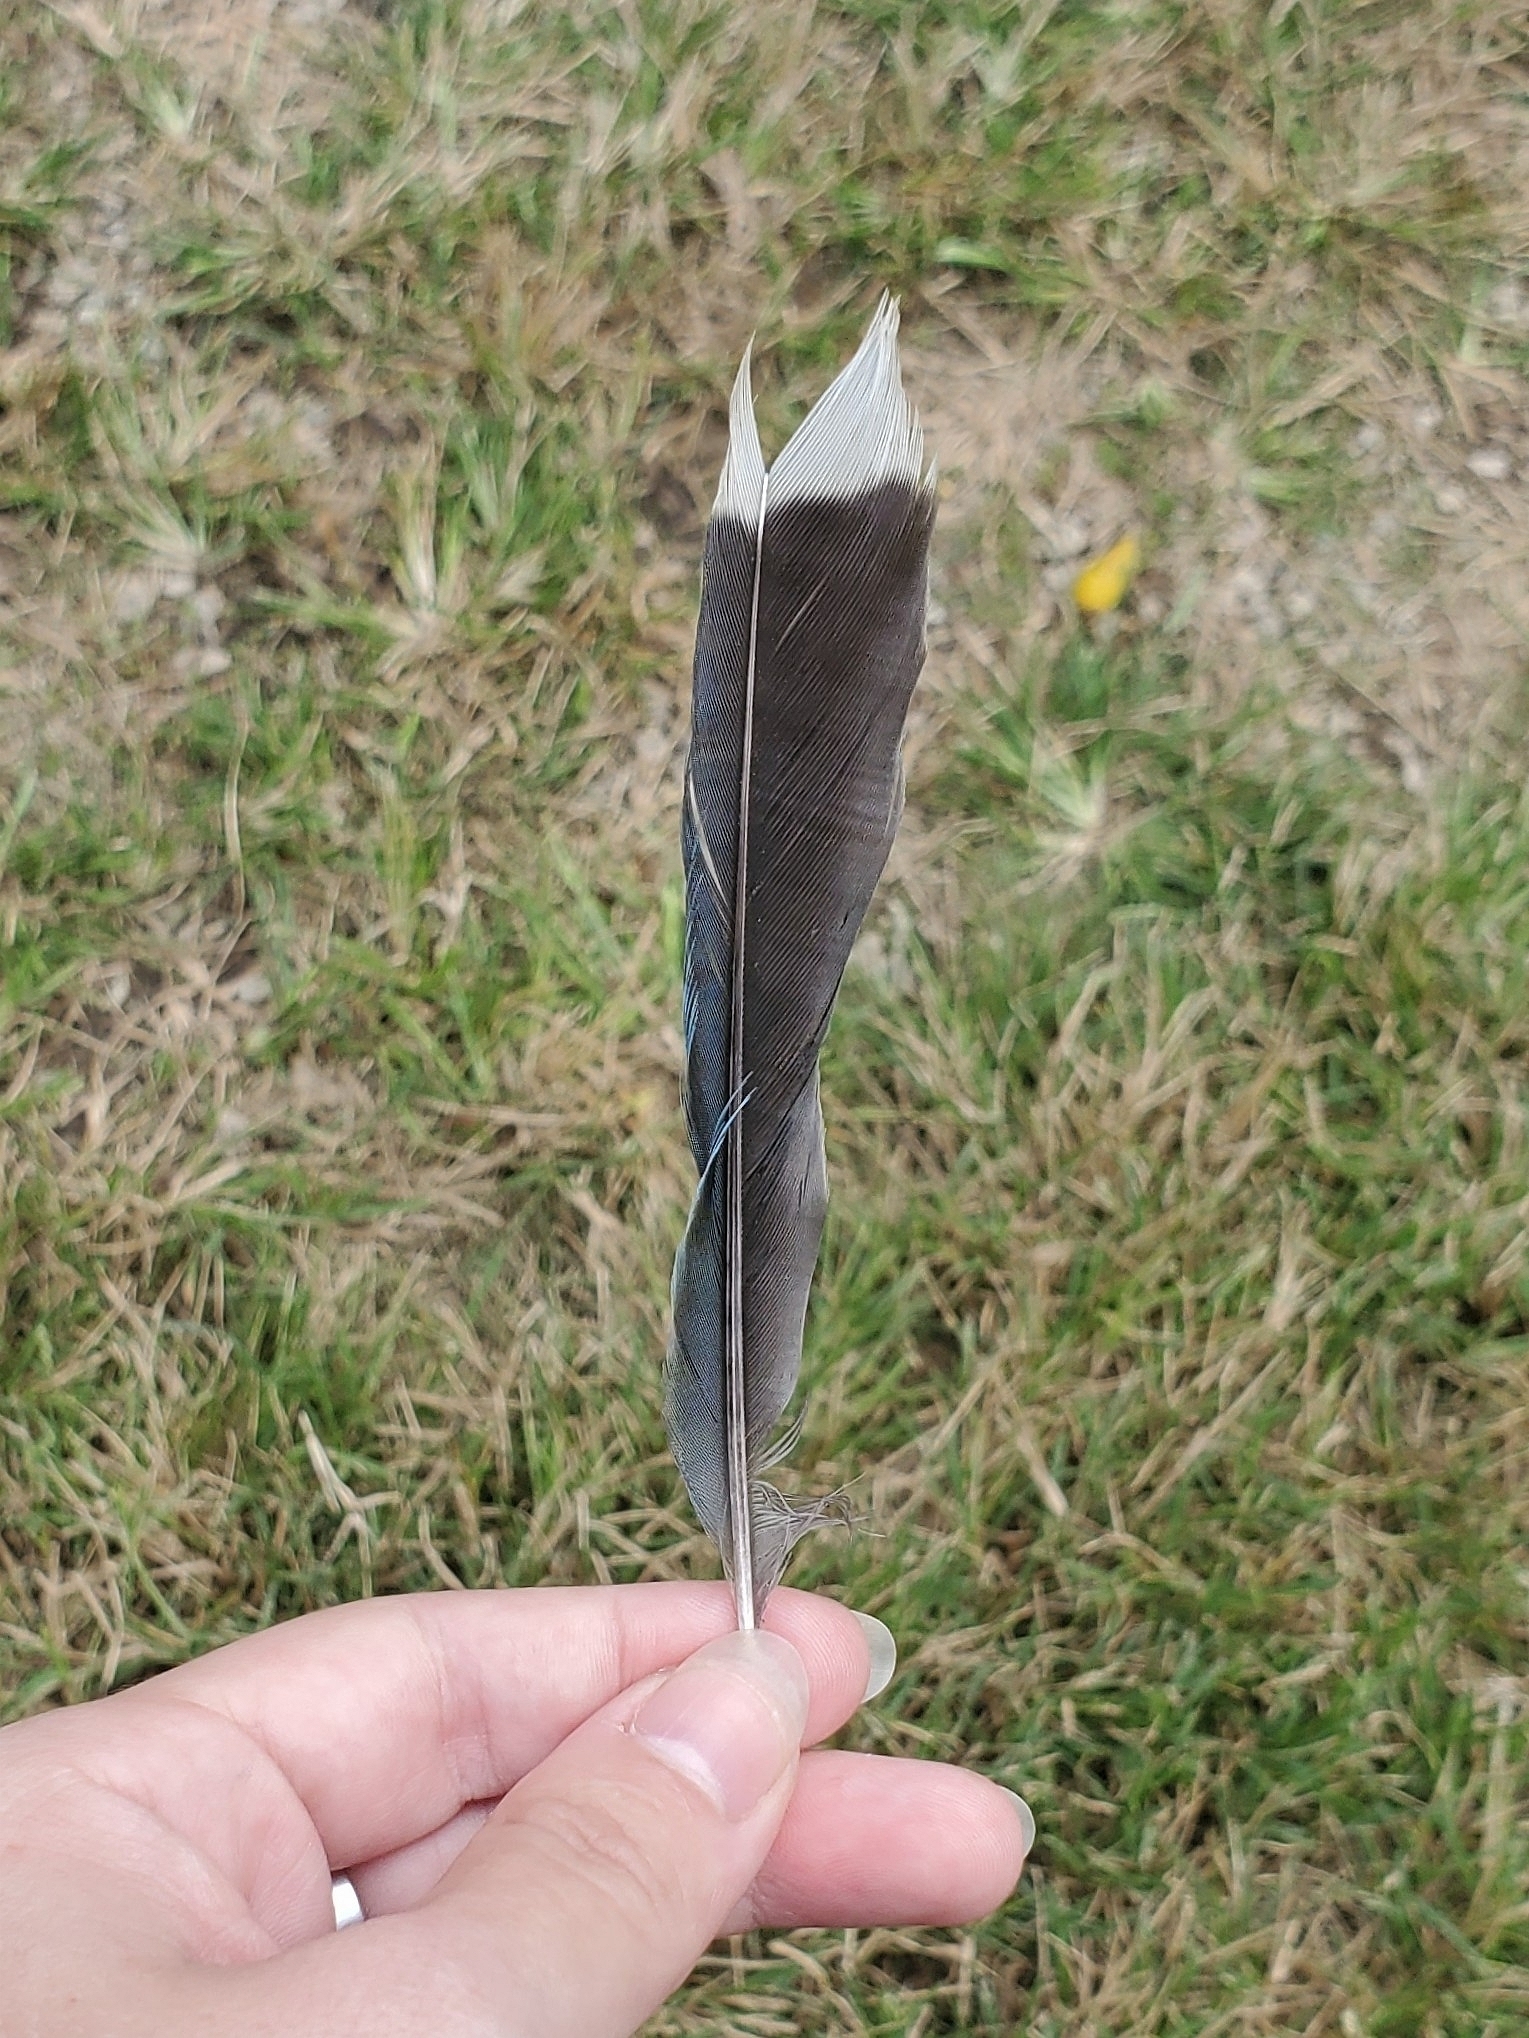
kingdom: Animalia
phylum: Chordata
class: Aves
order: Passeriformes
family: Corvidae
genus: Cyanocitta
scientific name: Cyanocitta cristata
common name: Blue jay
